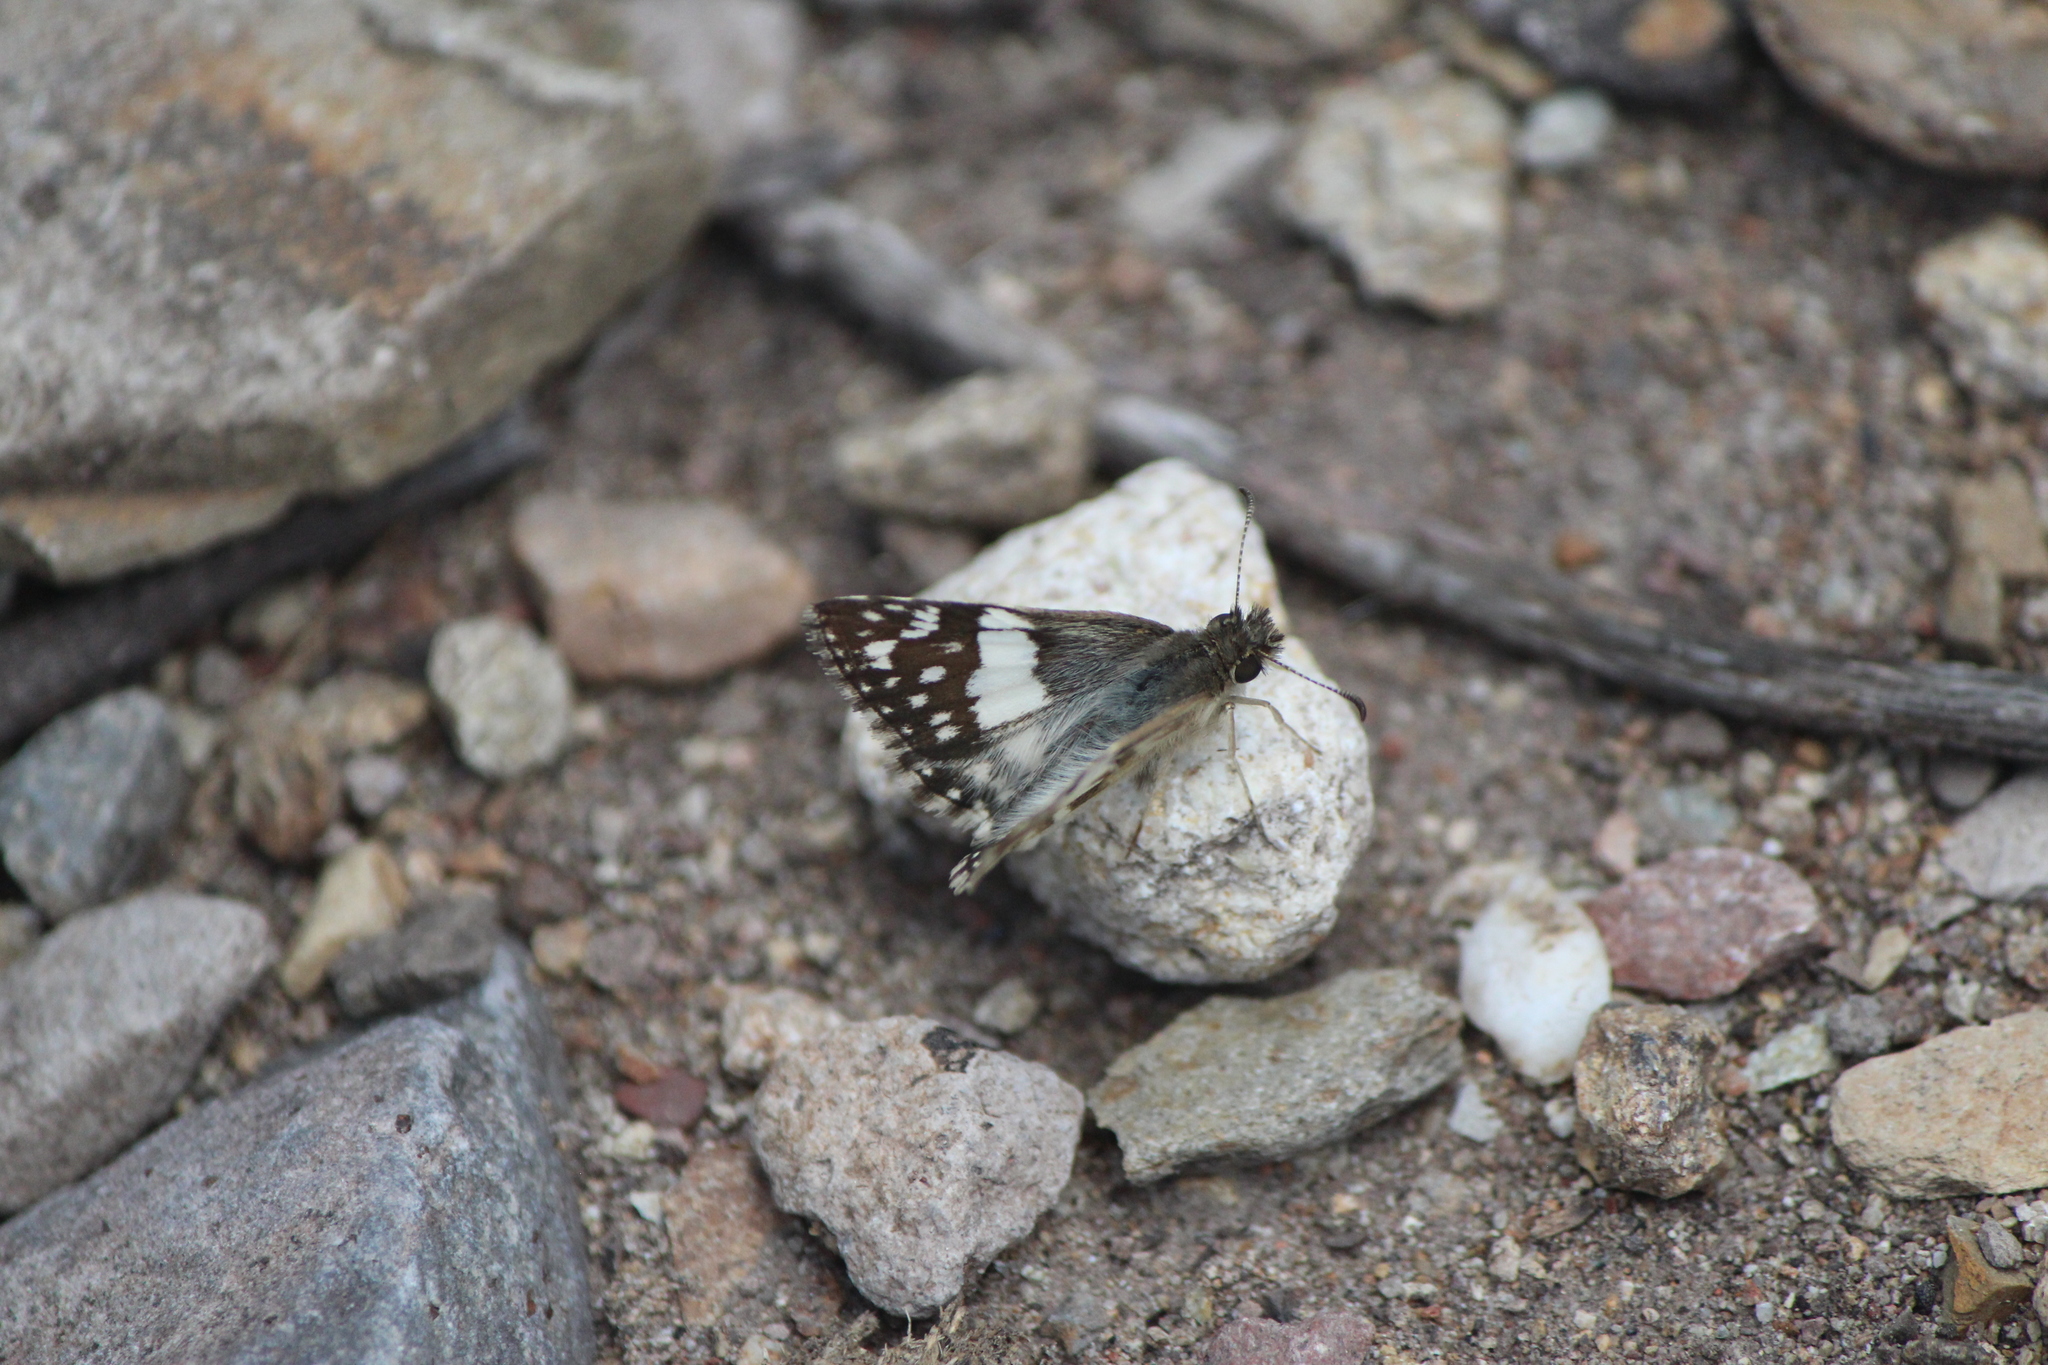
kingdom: Animalia
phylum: Arthropoda
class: Insecta
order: Lepidoptera
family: Hesperiidae
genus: Heliopyrgus
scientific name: Heliopyrgus domicella
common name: Erichson's white skipper
